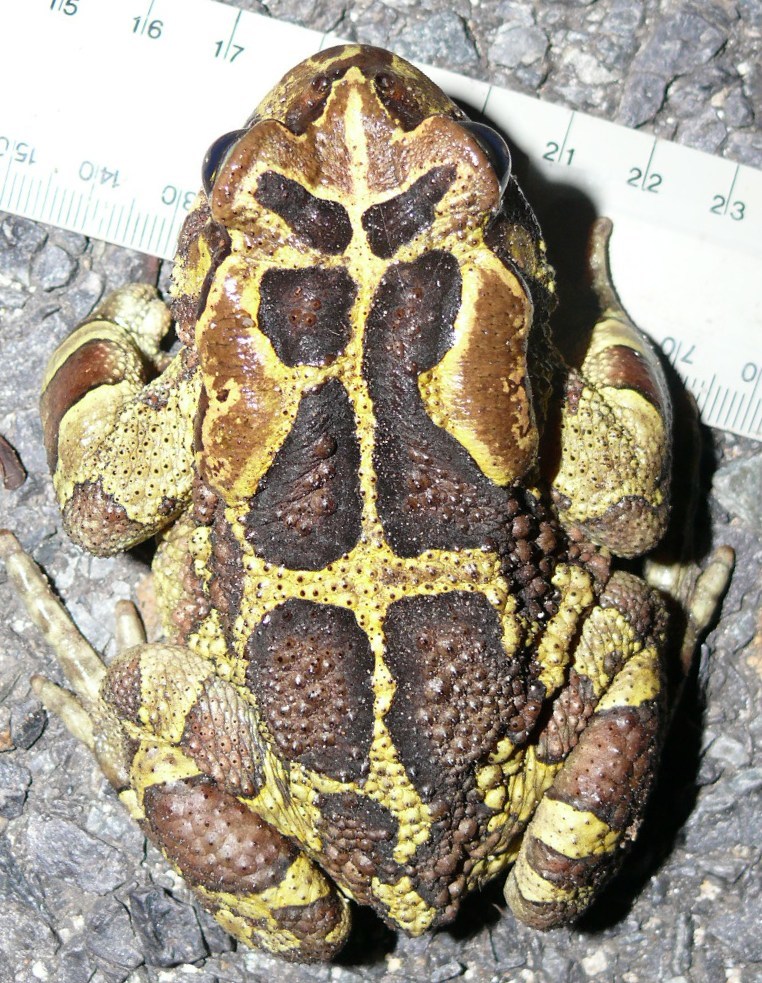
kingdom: Animalia
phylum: Chordata
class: Amphibia
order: Anura
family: Bufonidae
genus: Sclerophrys
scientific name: Sclerophrys pantherina
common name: Panther toad
